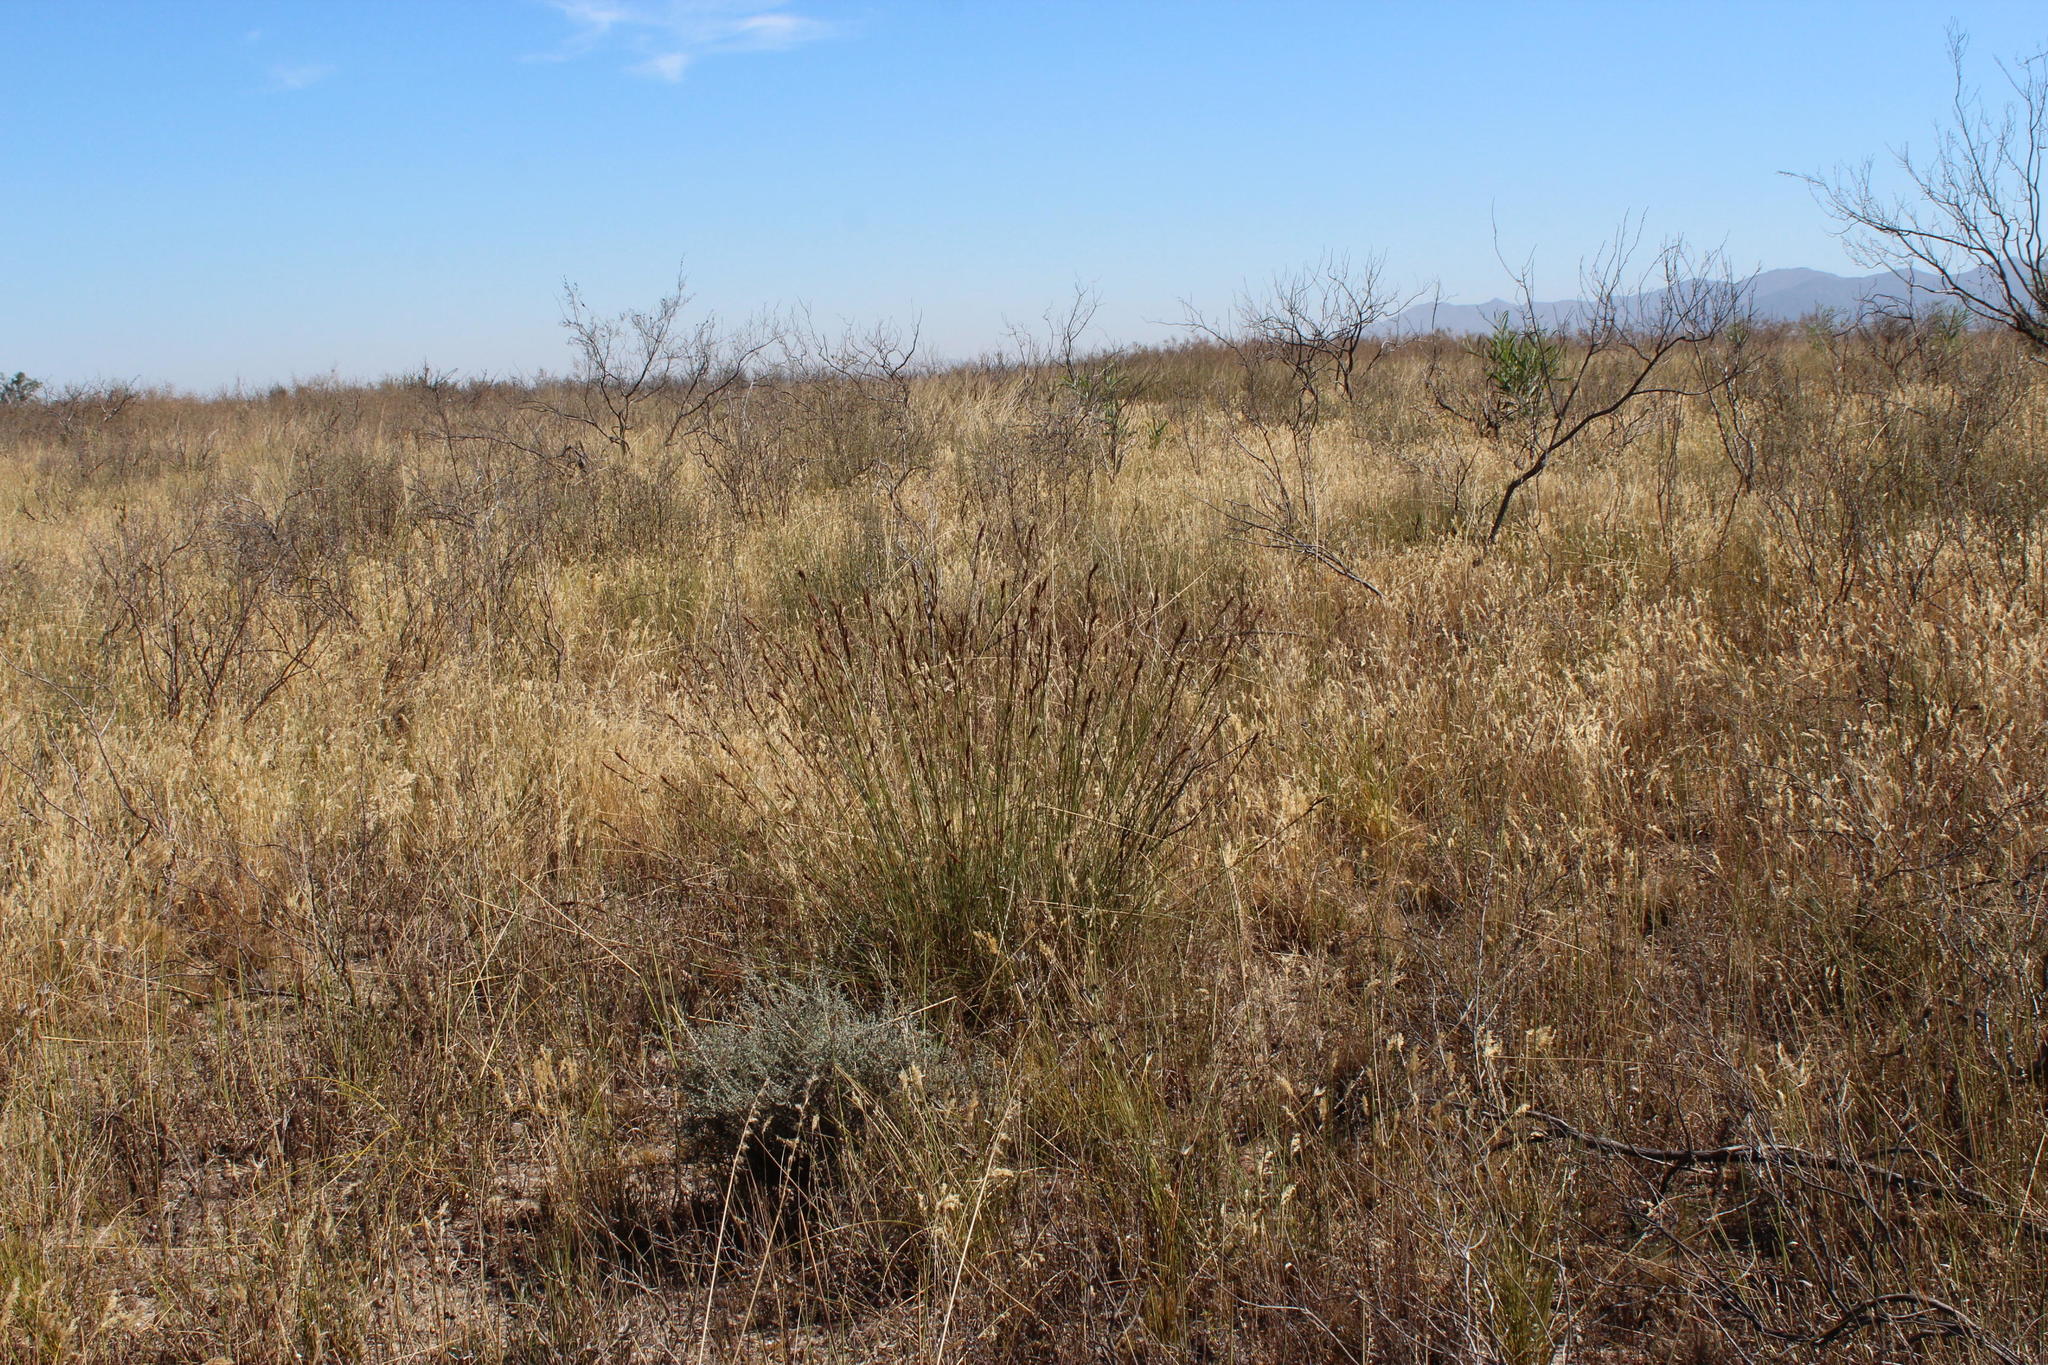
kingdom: Plantae
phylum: Tracheophyta
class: Liliopsida
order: Poales
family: Cyperaceae
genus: Tetraria
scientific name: Tetraria ustulata
